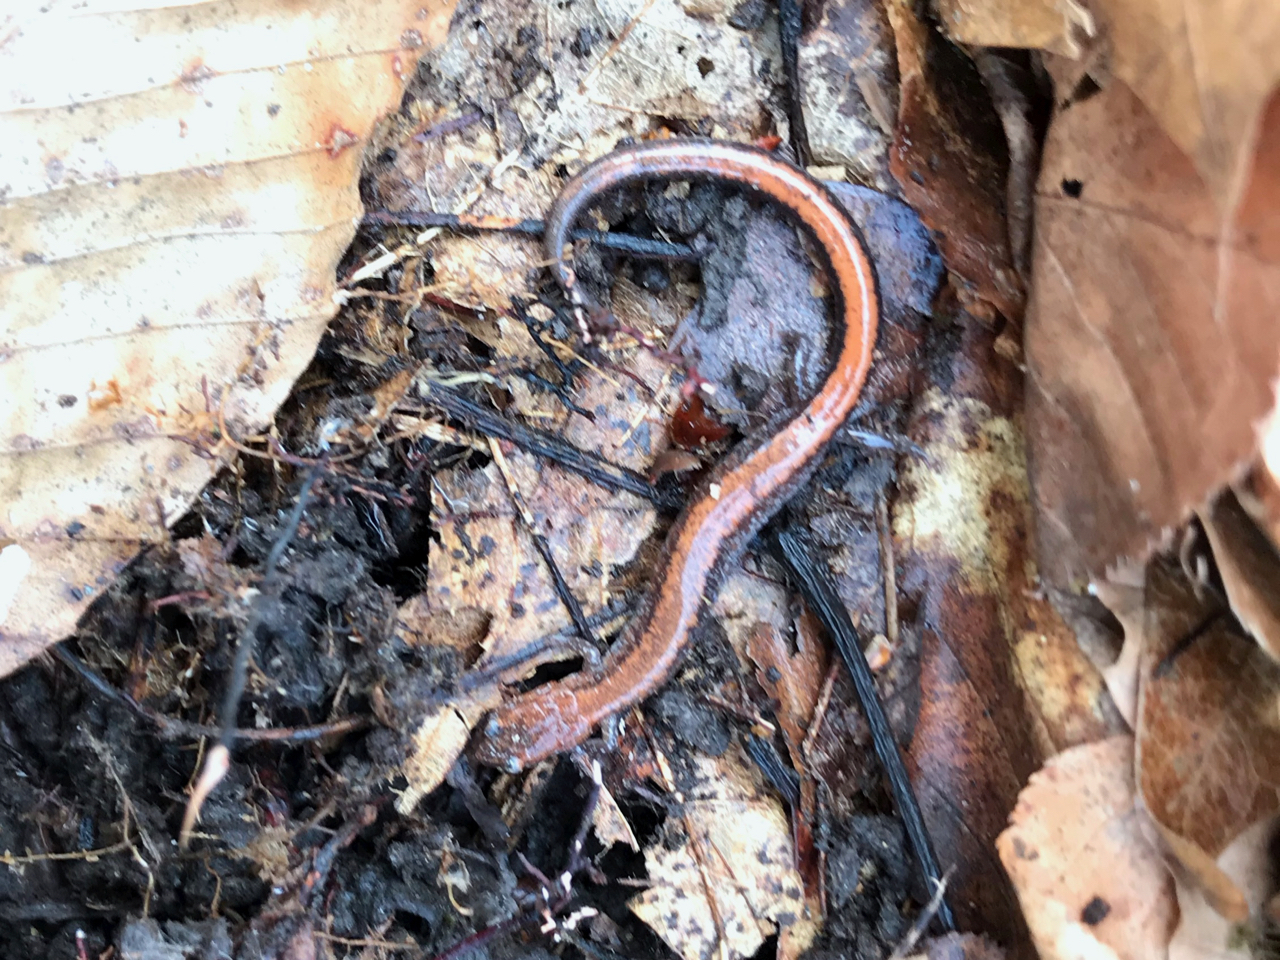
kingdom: Animalia
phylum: Chordata
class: Amphibia
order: Caudata
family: Plethodontidae
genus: Plethodon
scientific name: Plethodon cinereus
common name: Redback salamander
